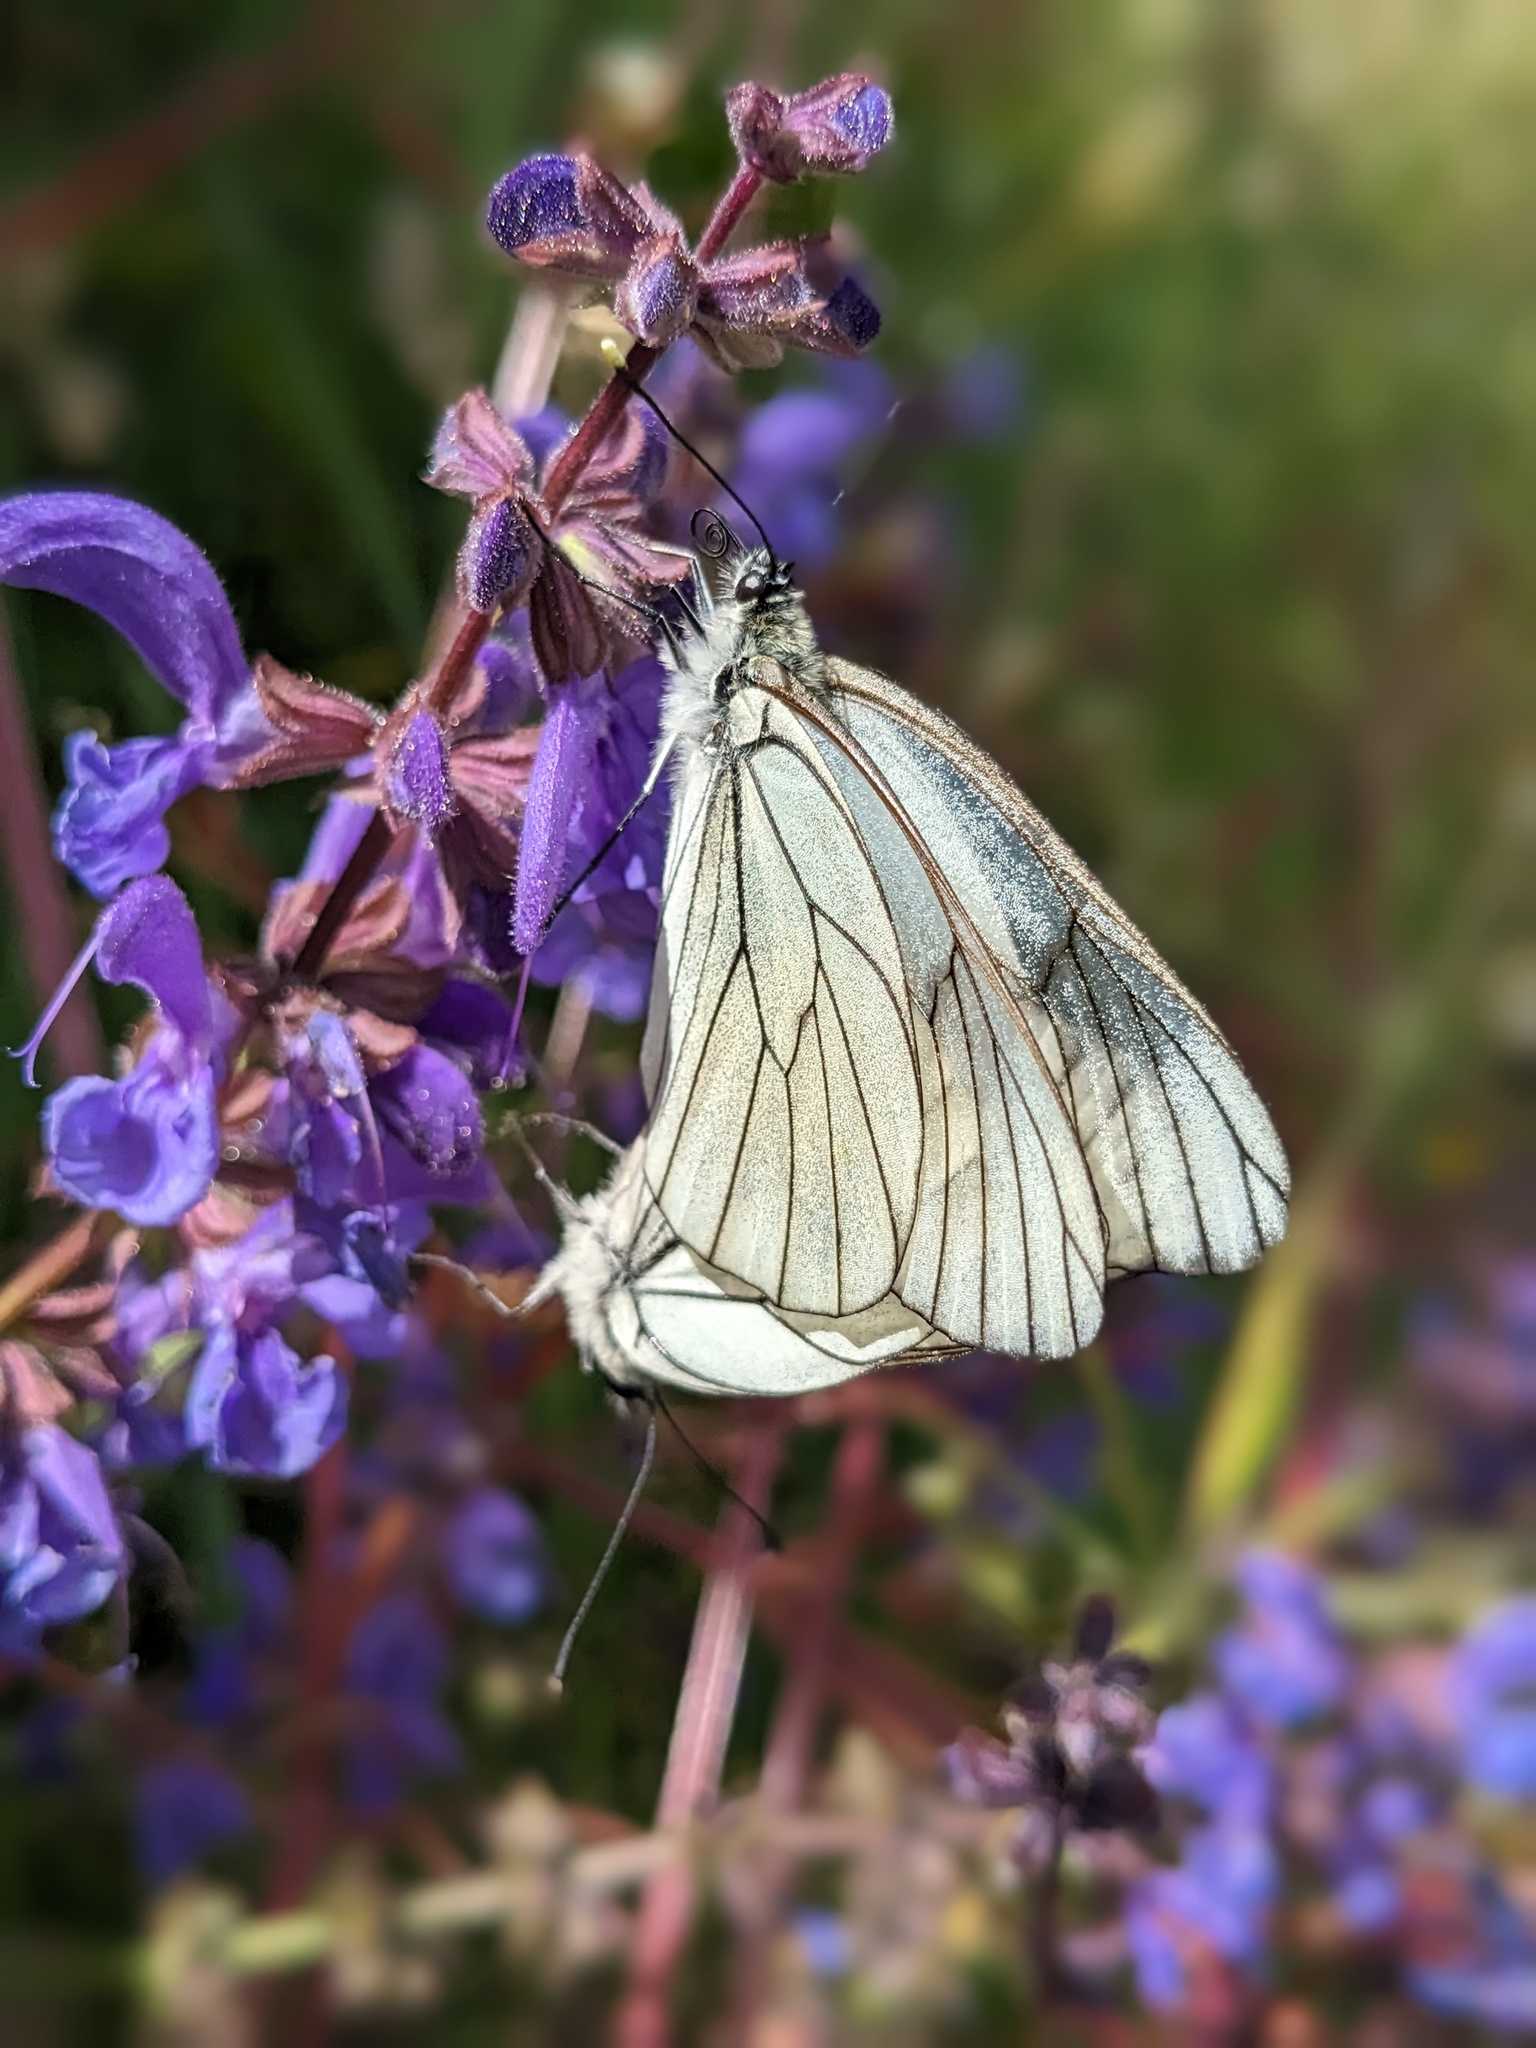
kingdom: Animalia
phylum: Arthropoda
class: Insecta
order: Lepidoptera
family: Pieridae
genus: Aporia
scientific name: Aporia crataegi
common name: Black-veined white
